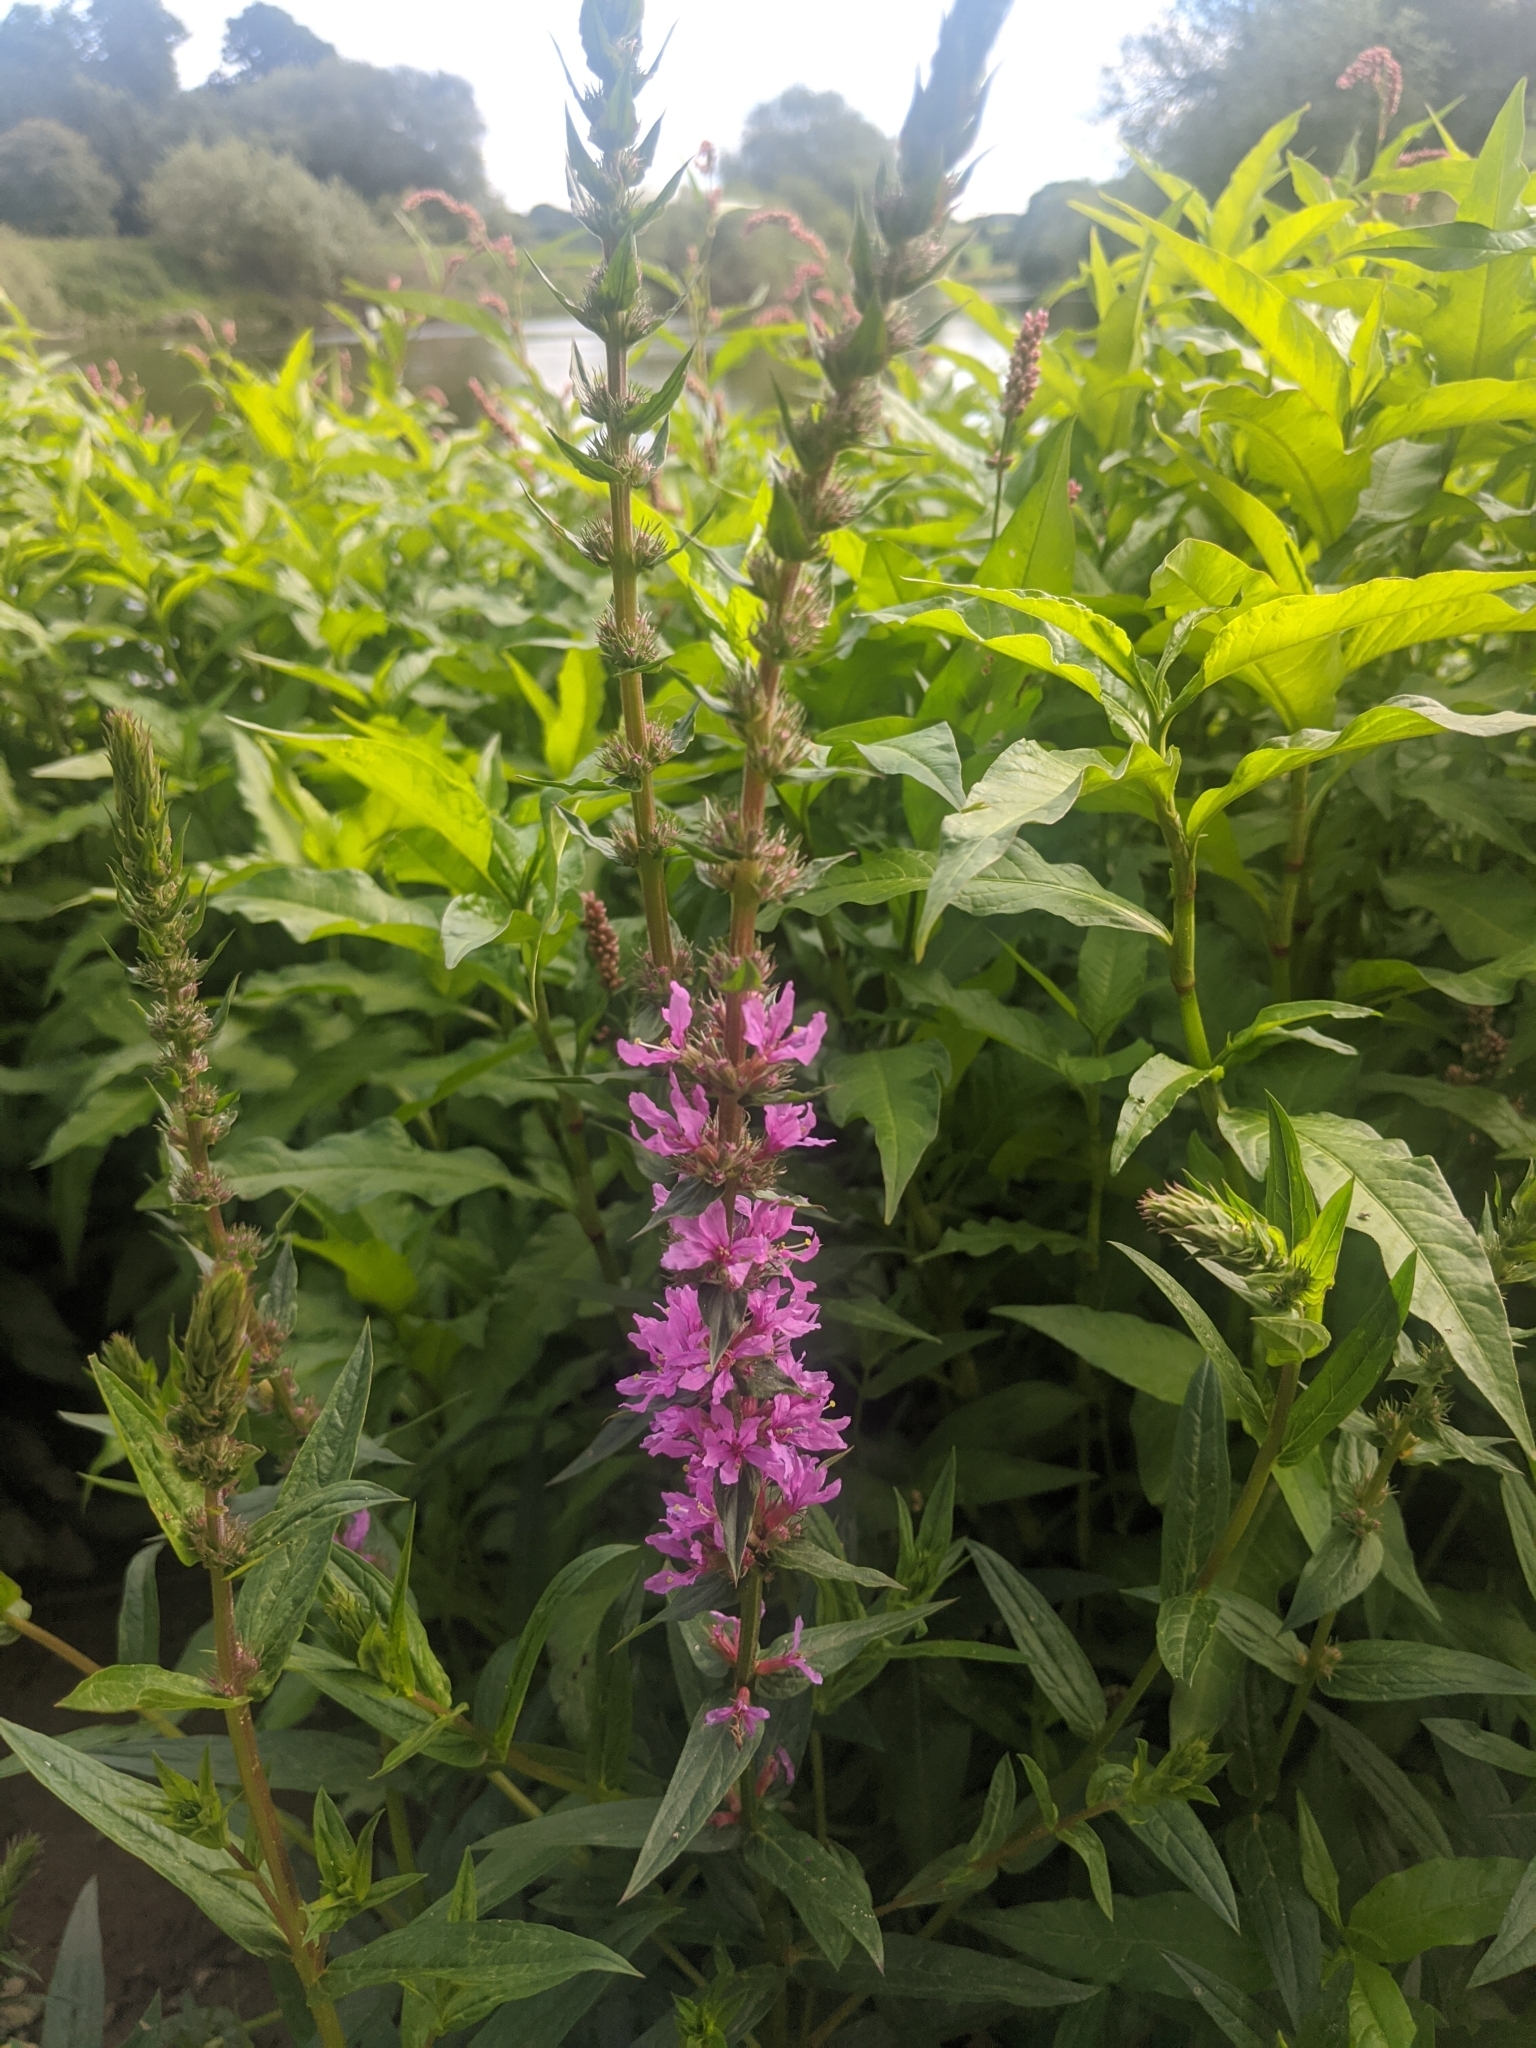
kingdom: Plantae
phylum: Tracheophyta
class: Magnoliopsida
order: Myrtales
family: Lythraceae
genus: Lythrum
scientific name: Lythrum salicaria
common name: Purple loosestrife
